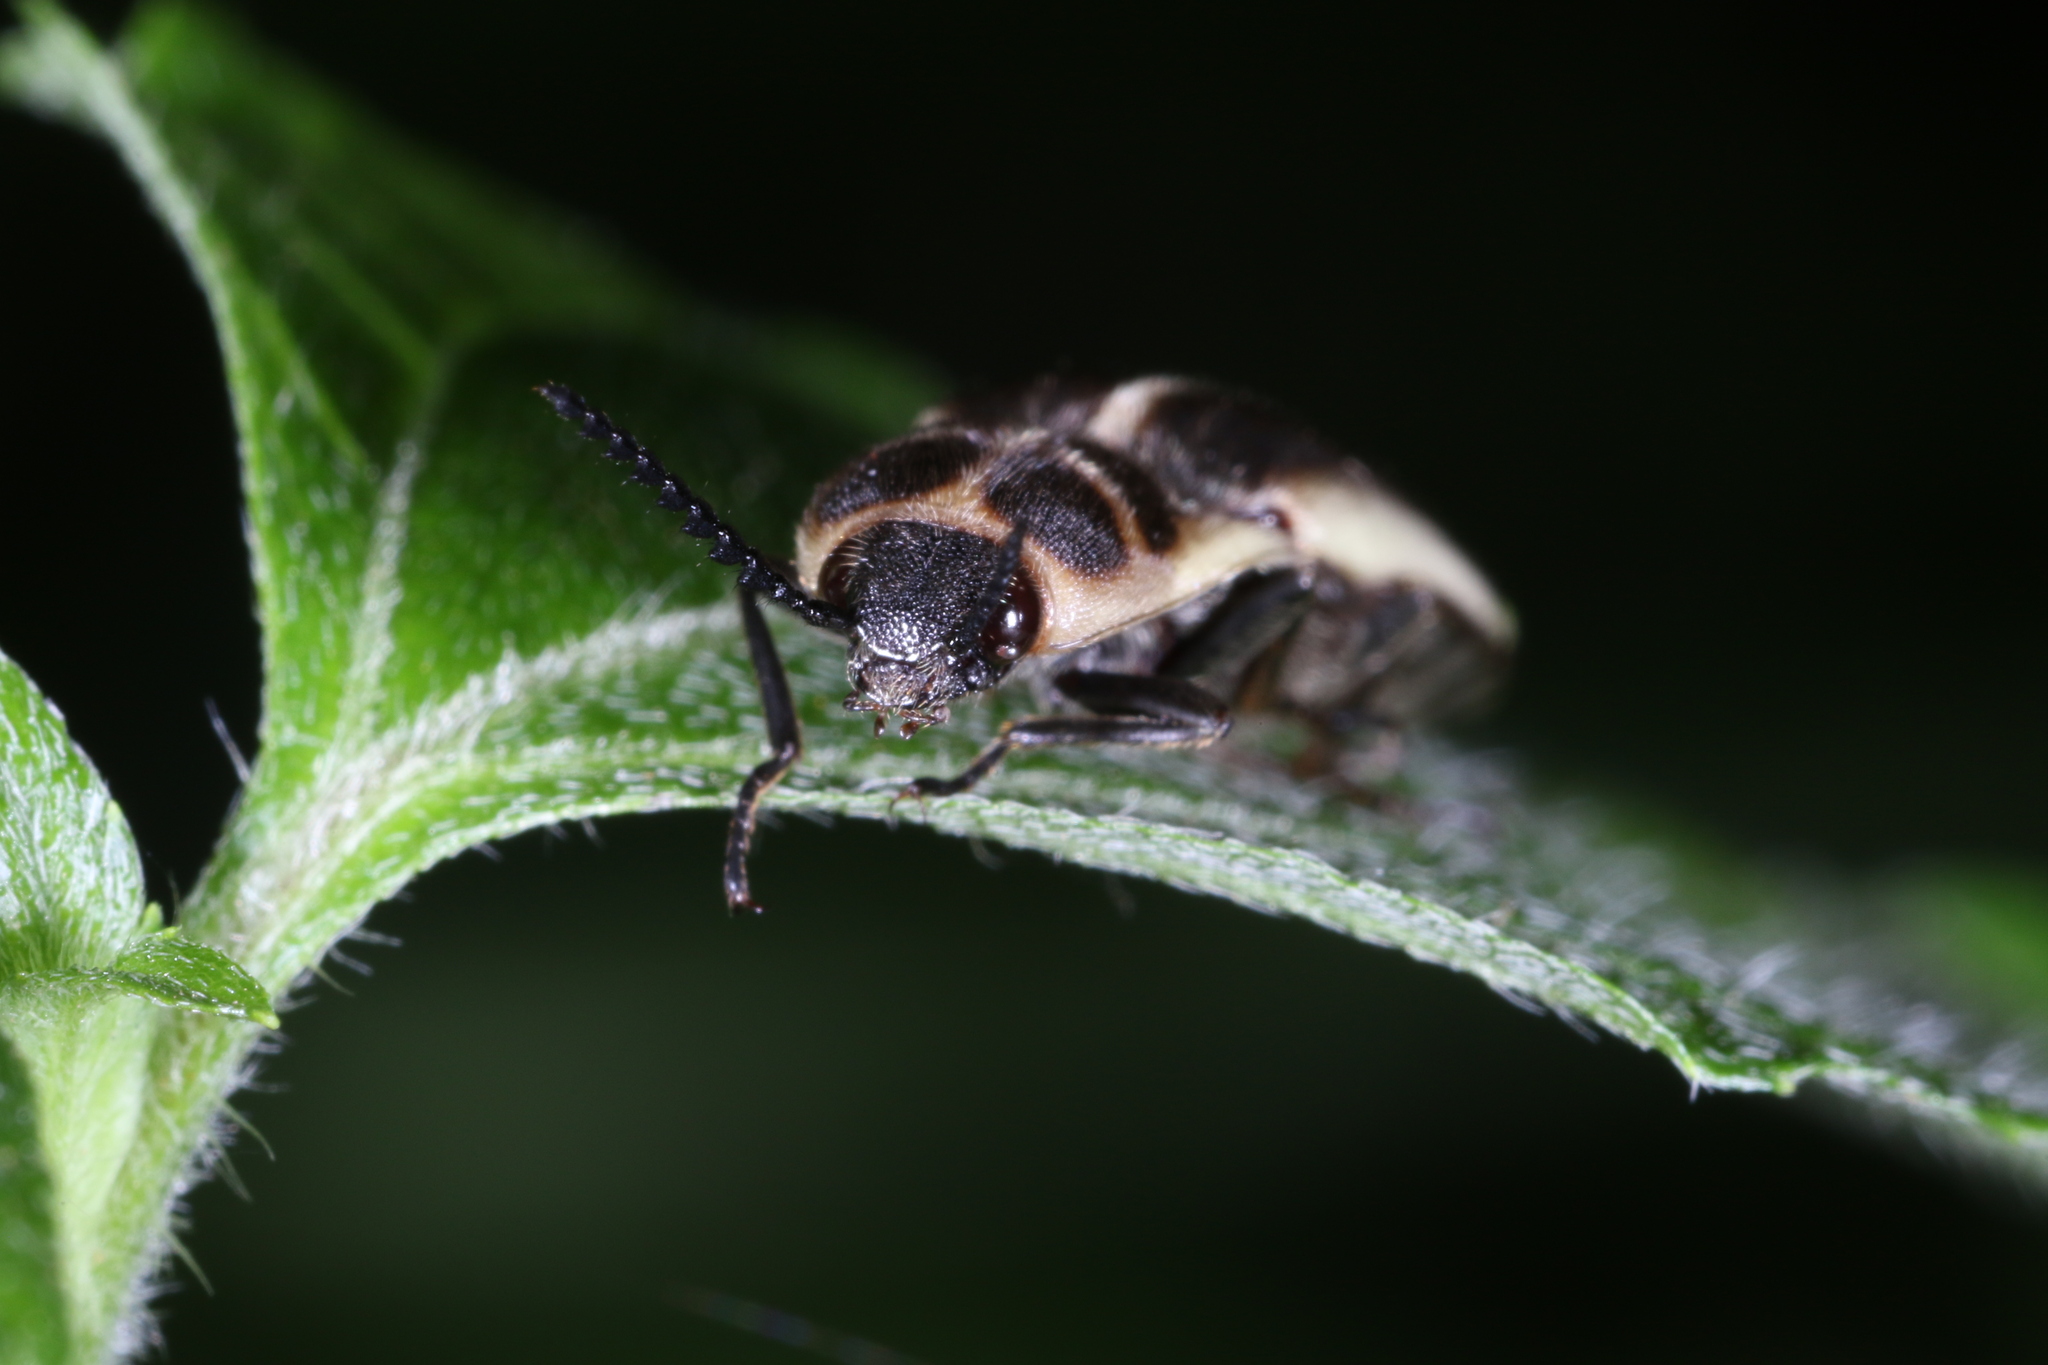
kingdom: Animalia
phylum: Arthropoda
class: Insecta
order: Coleoptera
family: Elateridae
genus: Probothrium
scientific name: Probothrium
